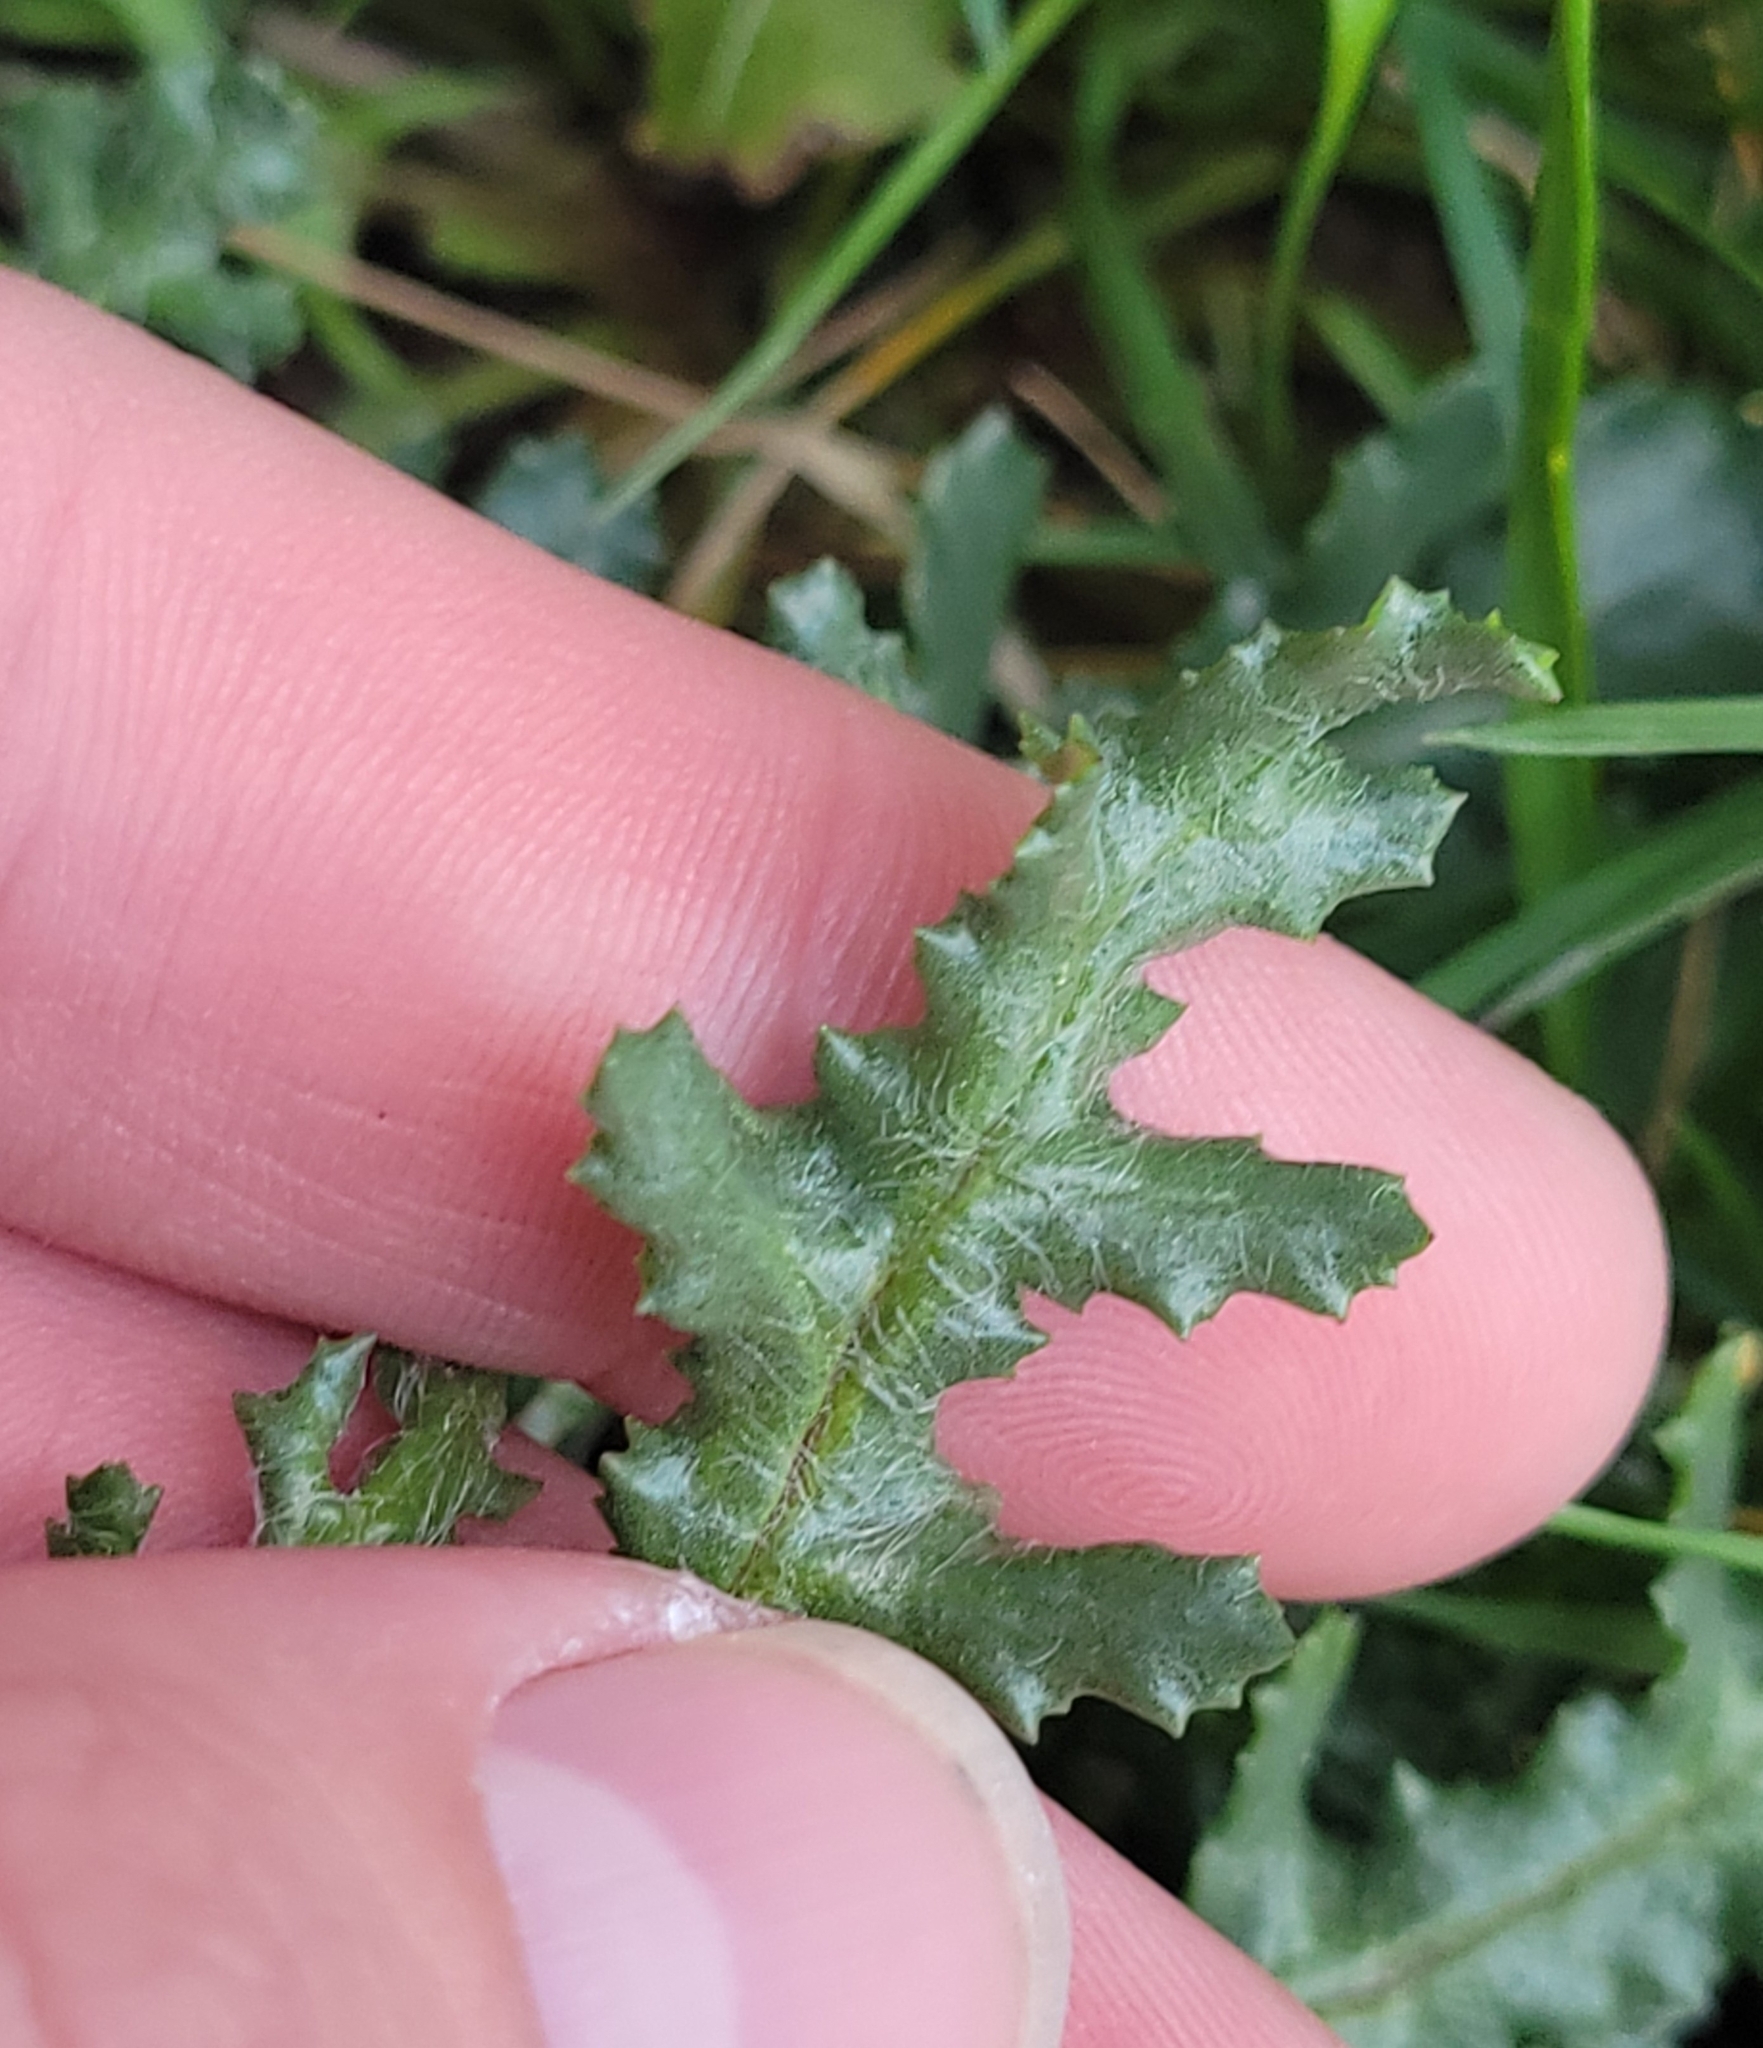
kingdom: Plantae
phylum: Tracheophyta
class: Magnoliopsida
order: Asterales
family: Asteraceae
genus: Senecio
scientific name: Senecio vulgaris
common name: Old-man-in-the-spring
